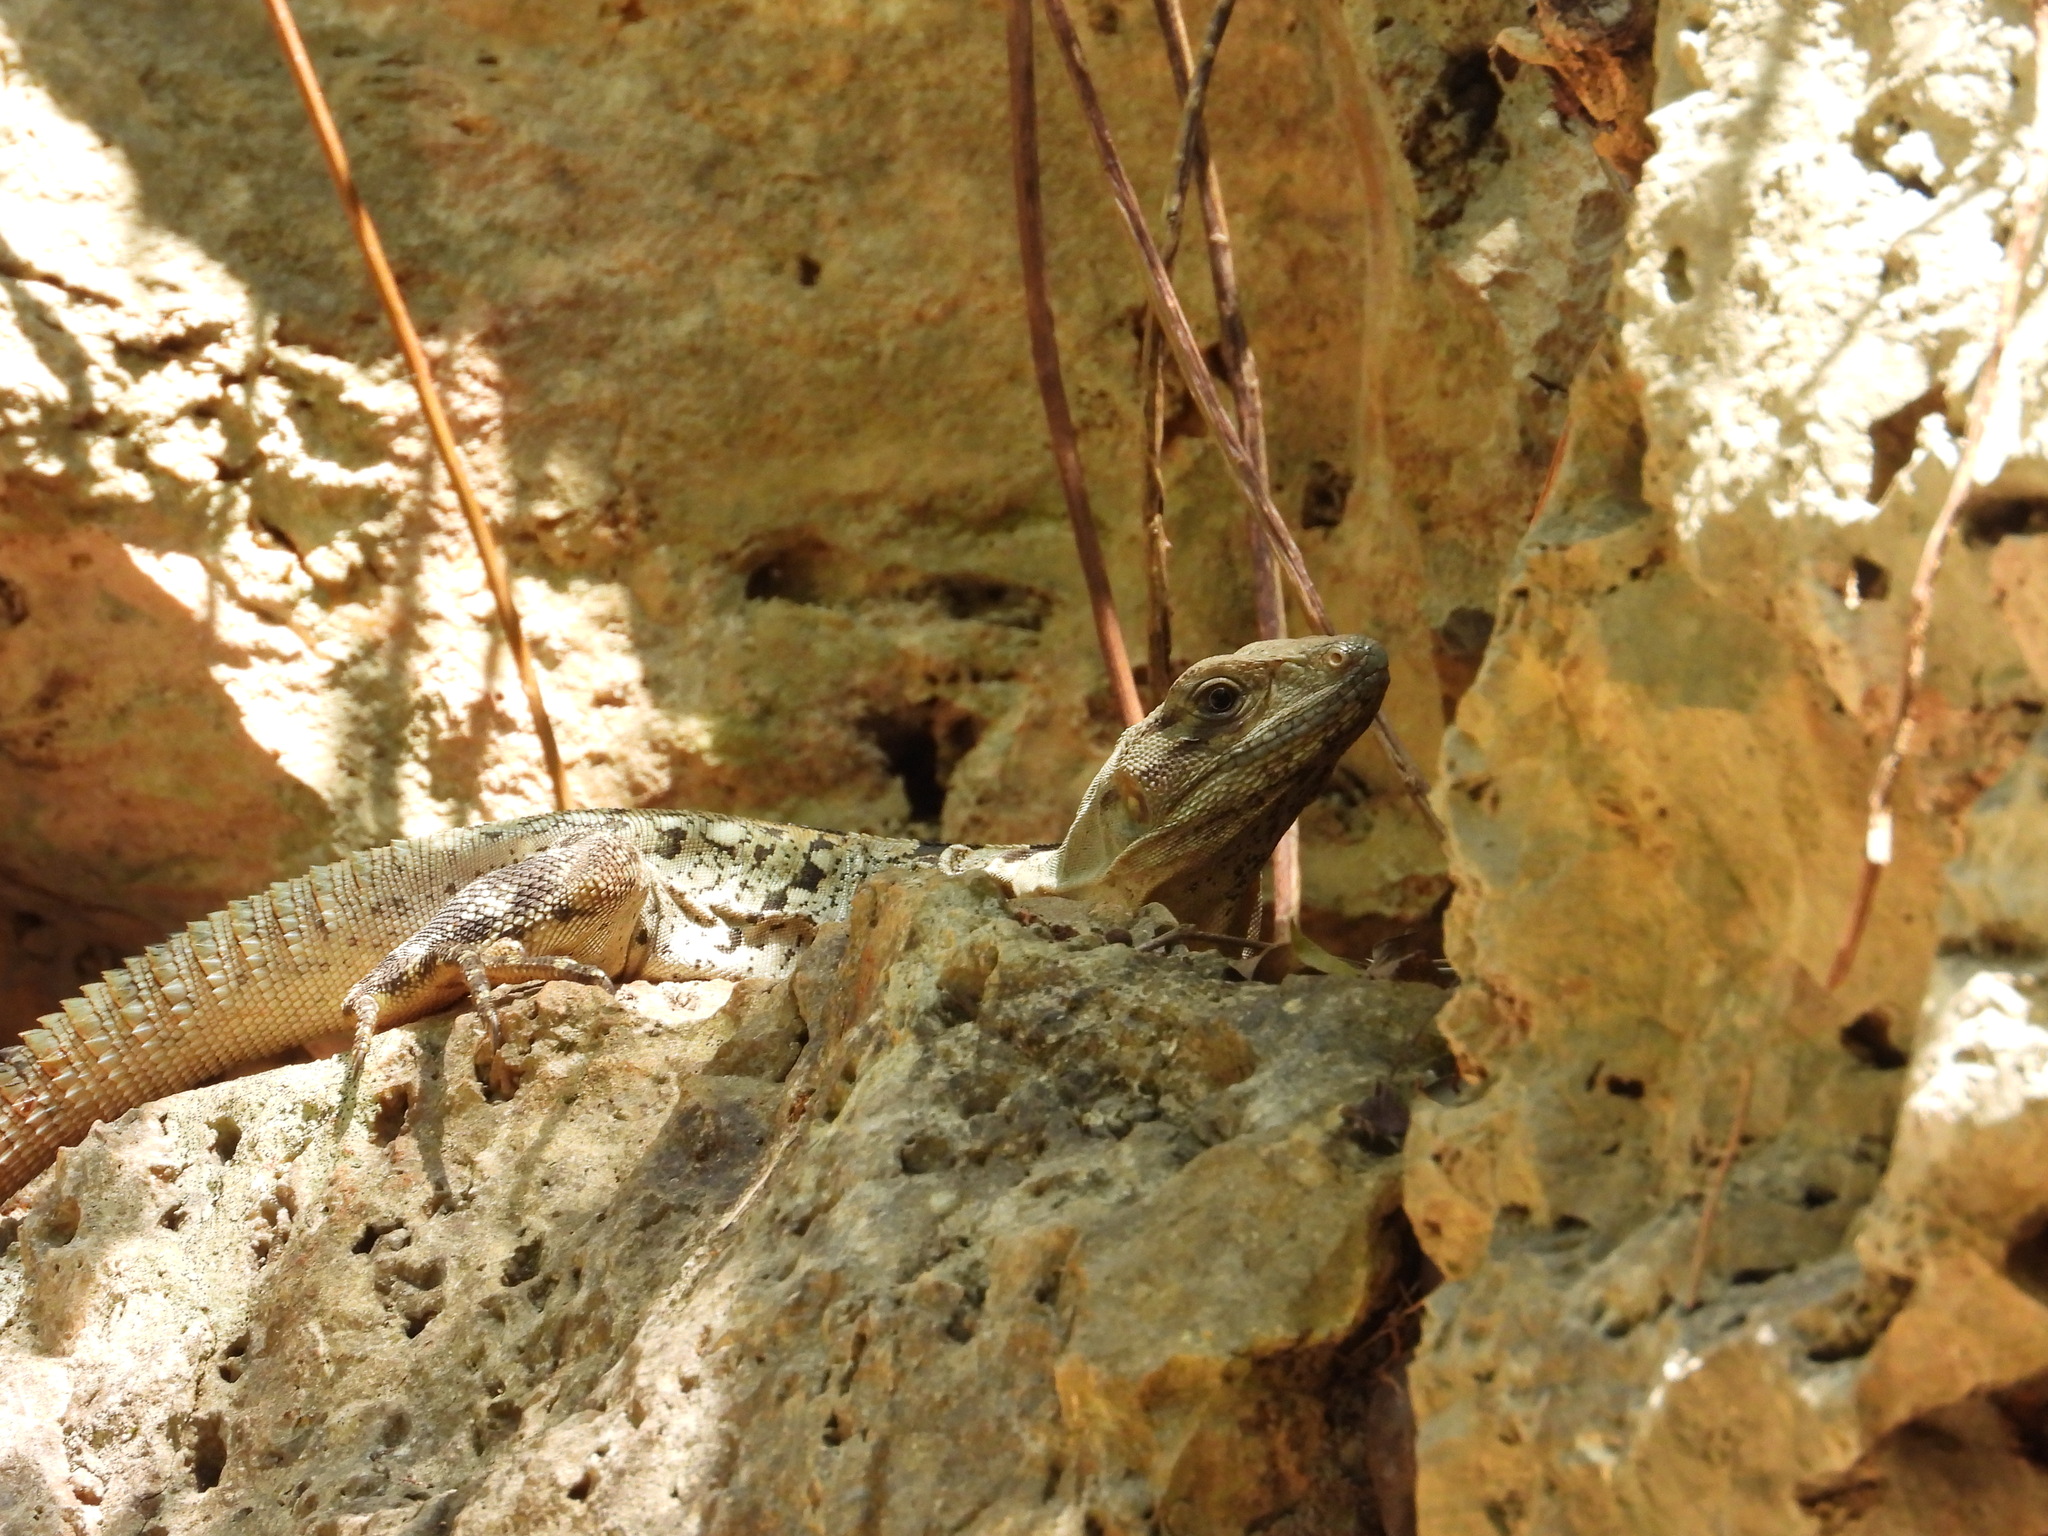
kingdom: Animalia
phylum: Chordata
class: Squamata
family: Iguanidae
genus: Ctenosaura
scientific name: Ctenosaura similis
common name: Black spiny-tailed iguana
